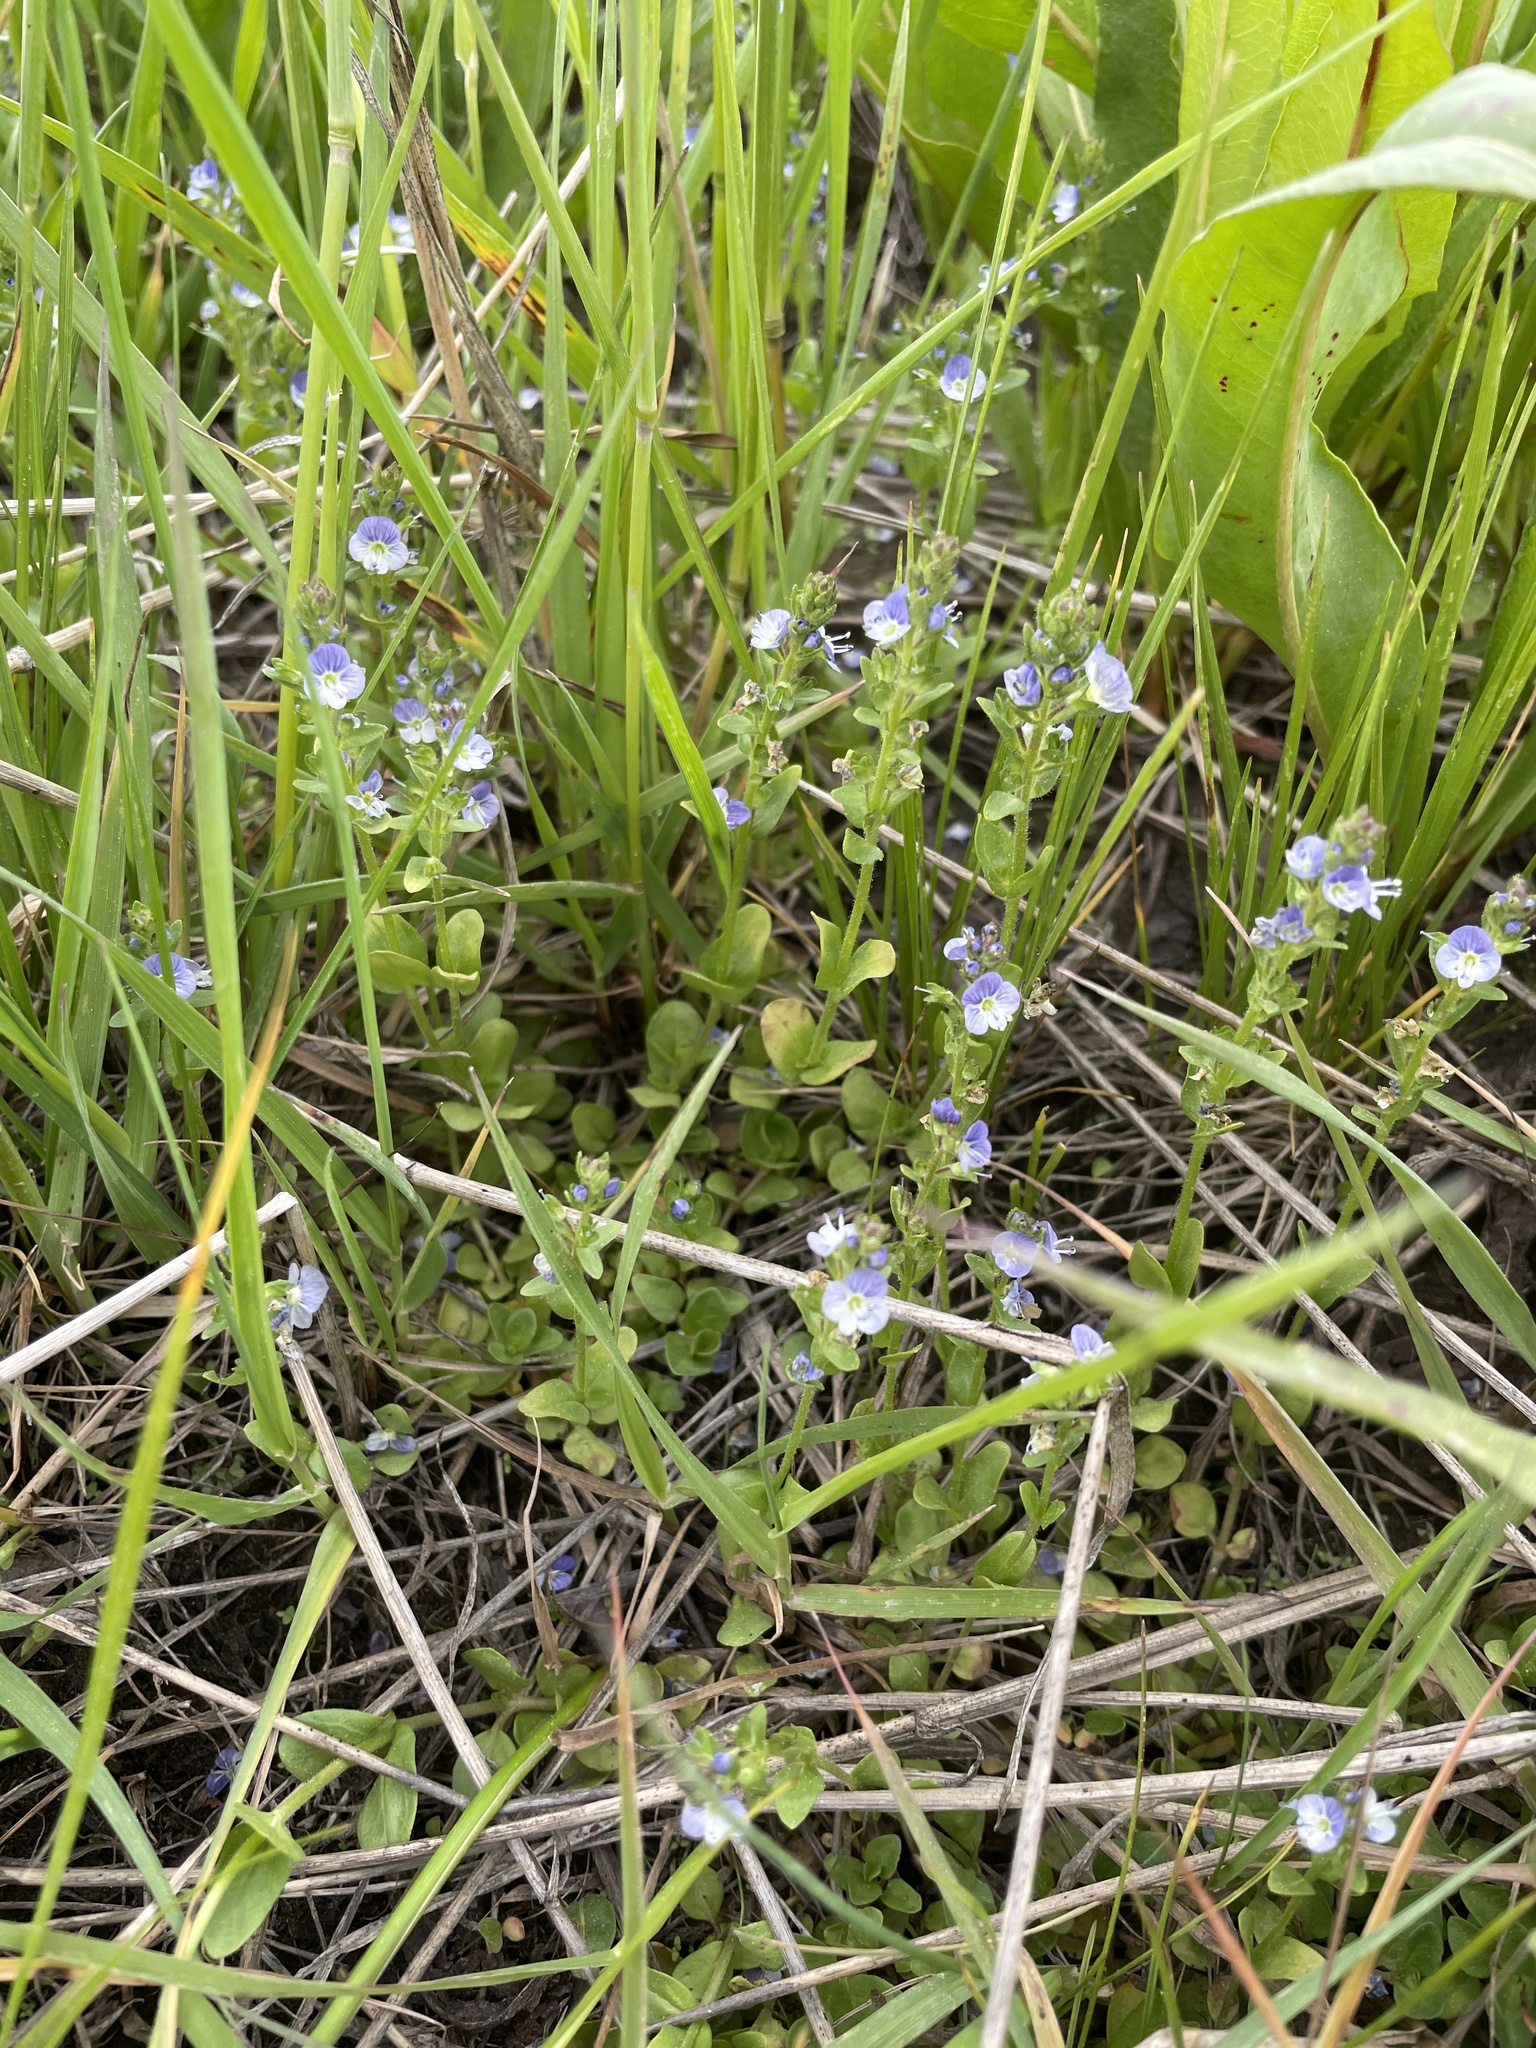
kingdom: Plantae
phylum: Tracheophyta
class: Magnoliopsida
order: Lamiales
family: Plantaginaceae
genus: Veronica
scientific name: Veronica serpyllifolia
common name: Thyme-leaved speedwell
